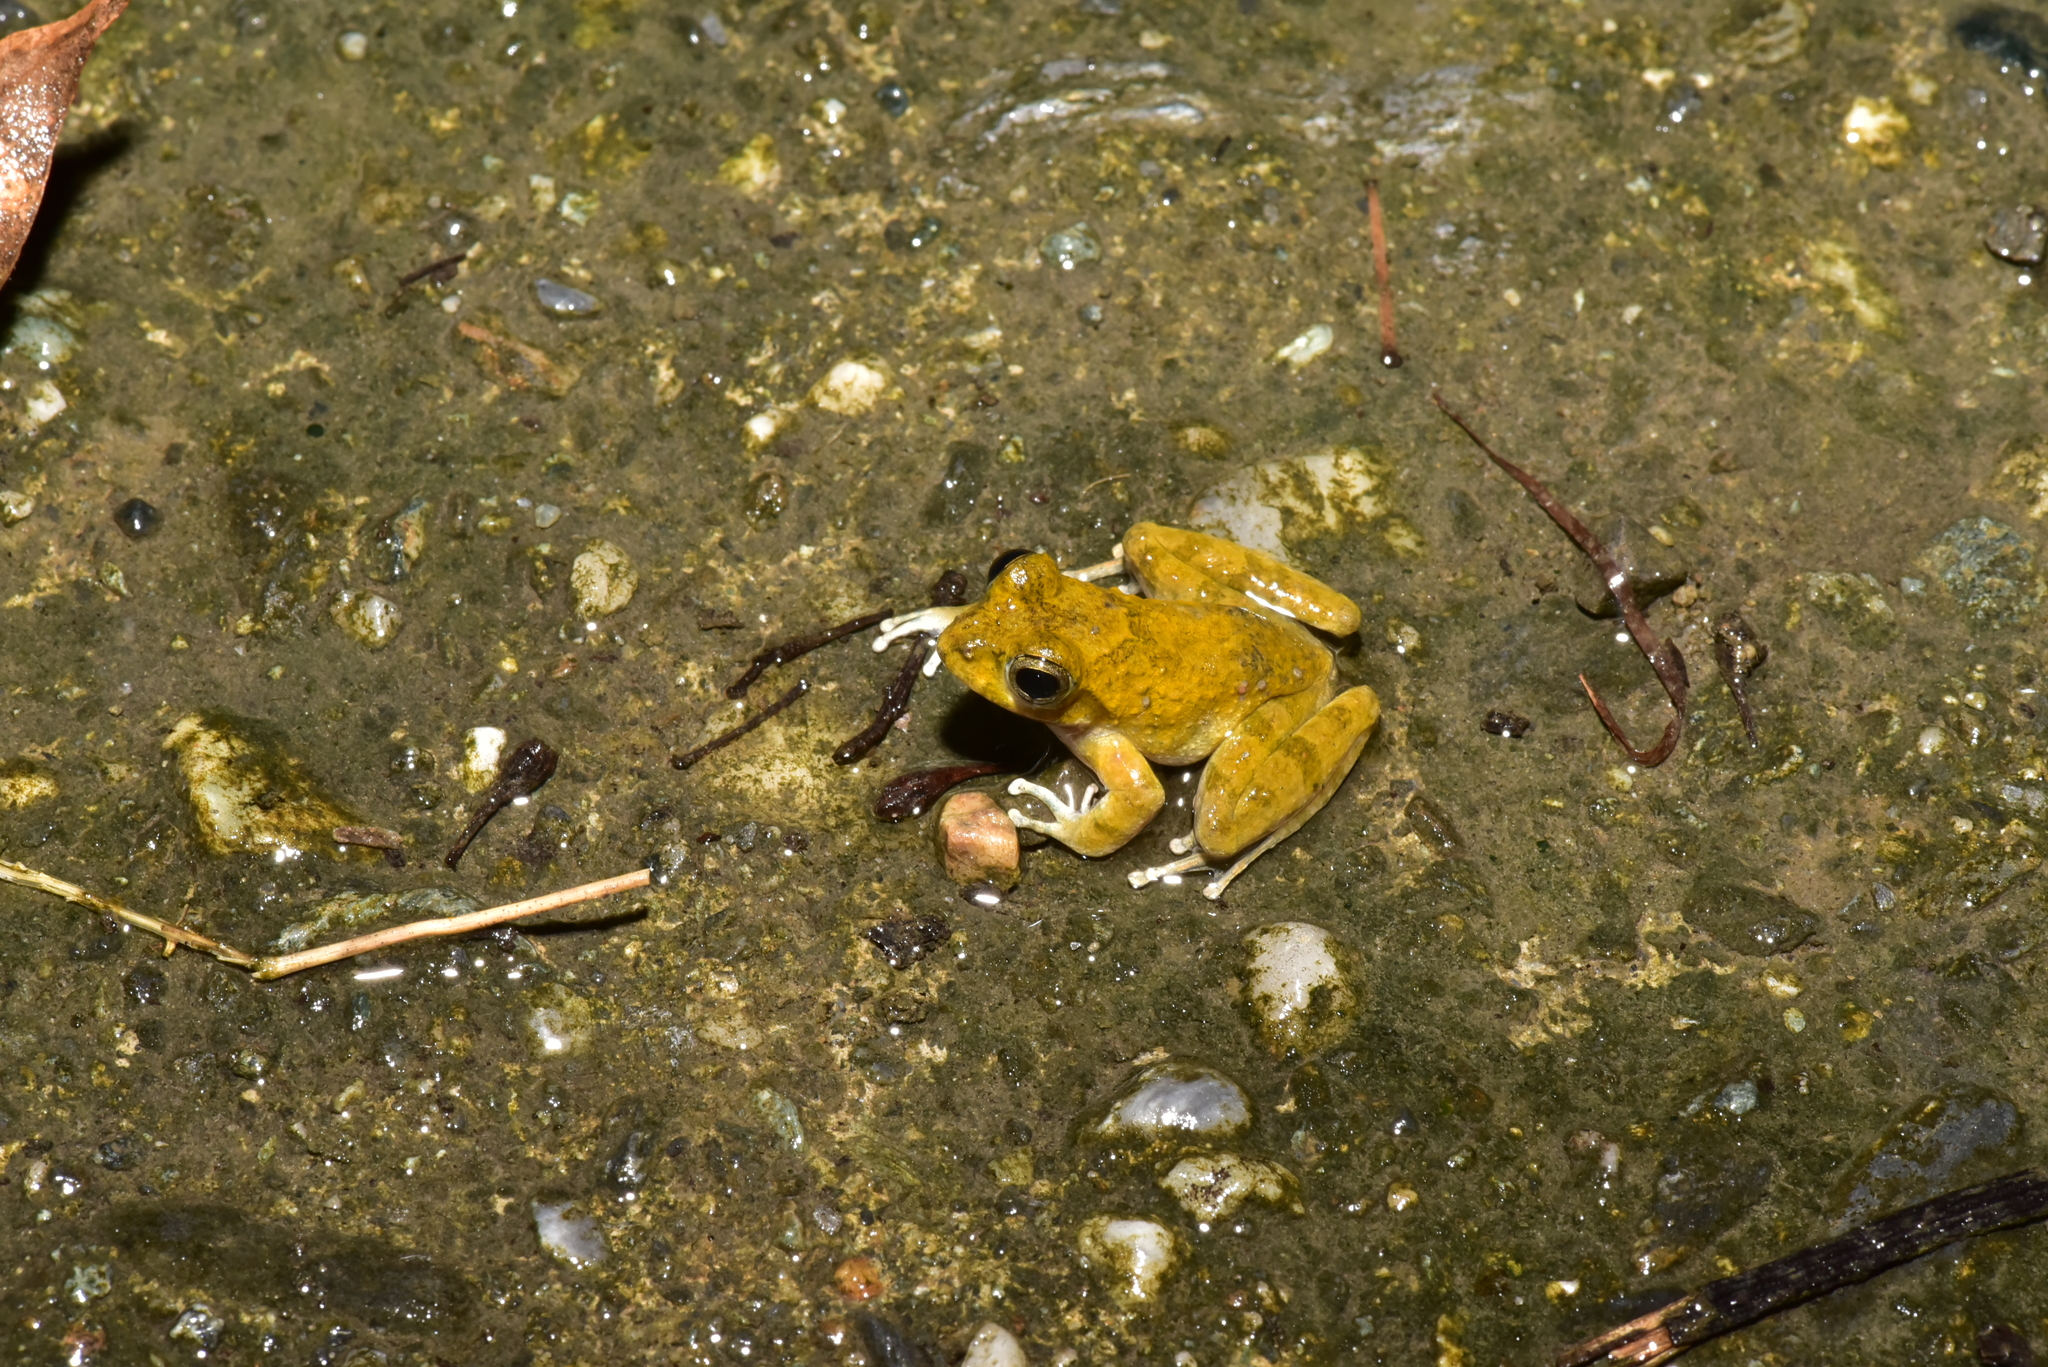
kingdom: Animalia
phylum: Chordata
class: Amphibia
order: Anura
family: Rhacophoridae
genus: Buergeria
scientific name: Buergeria otai
